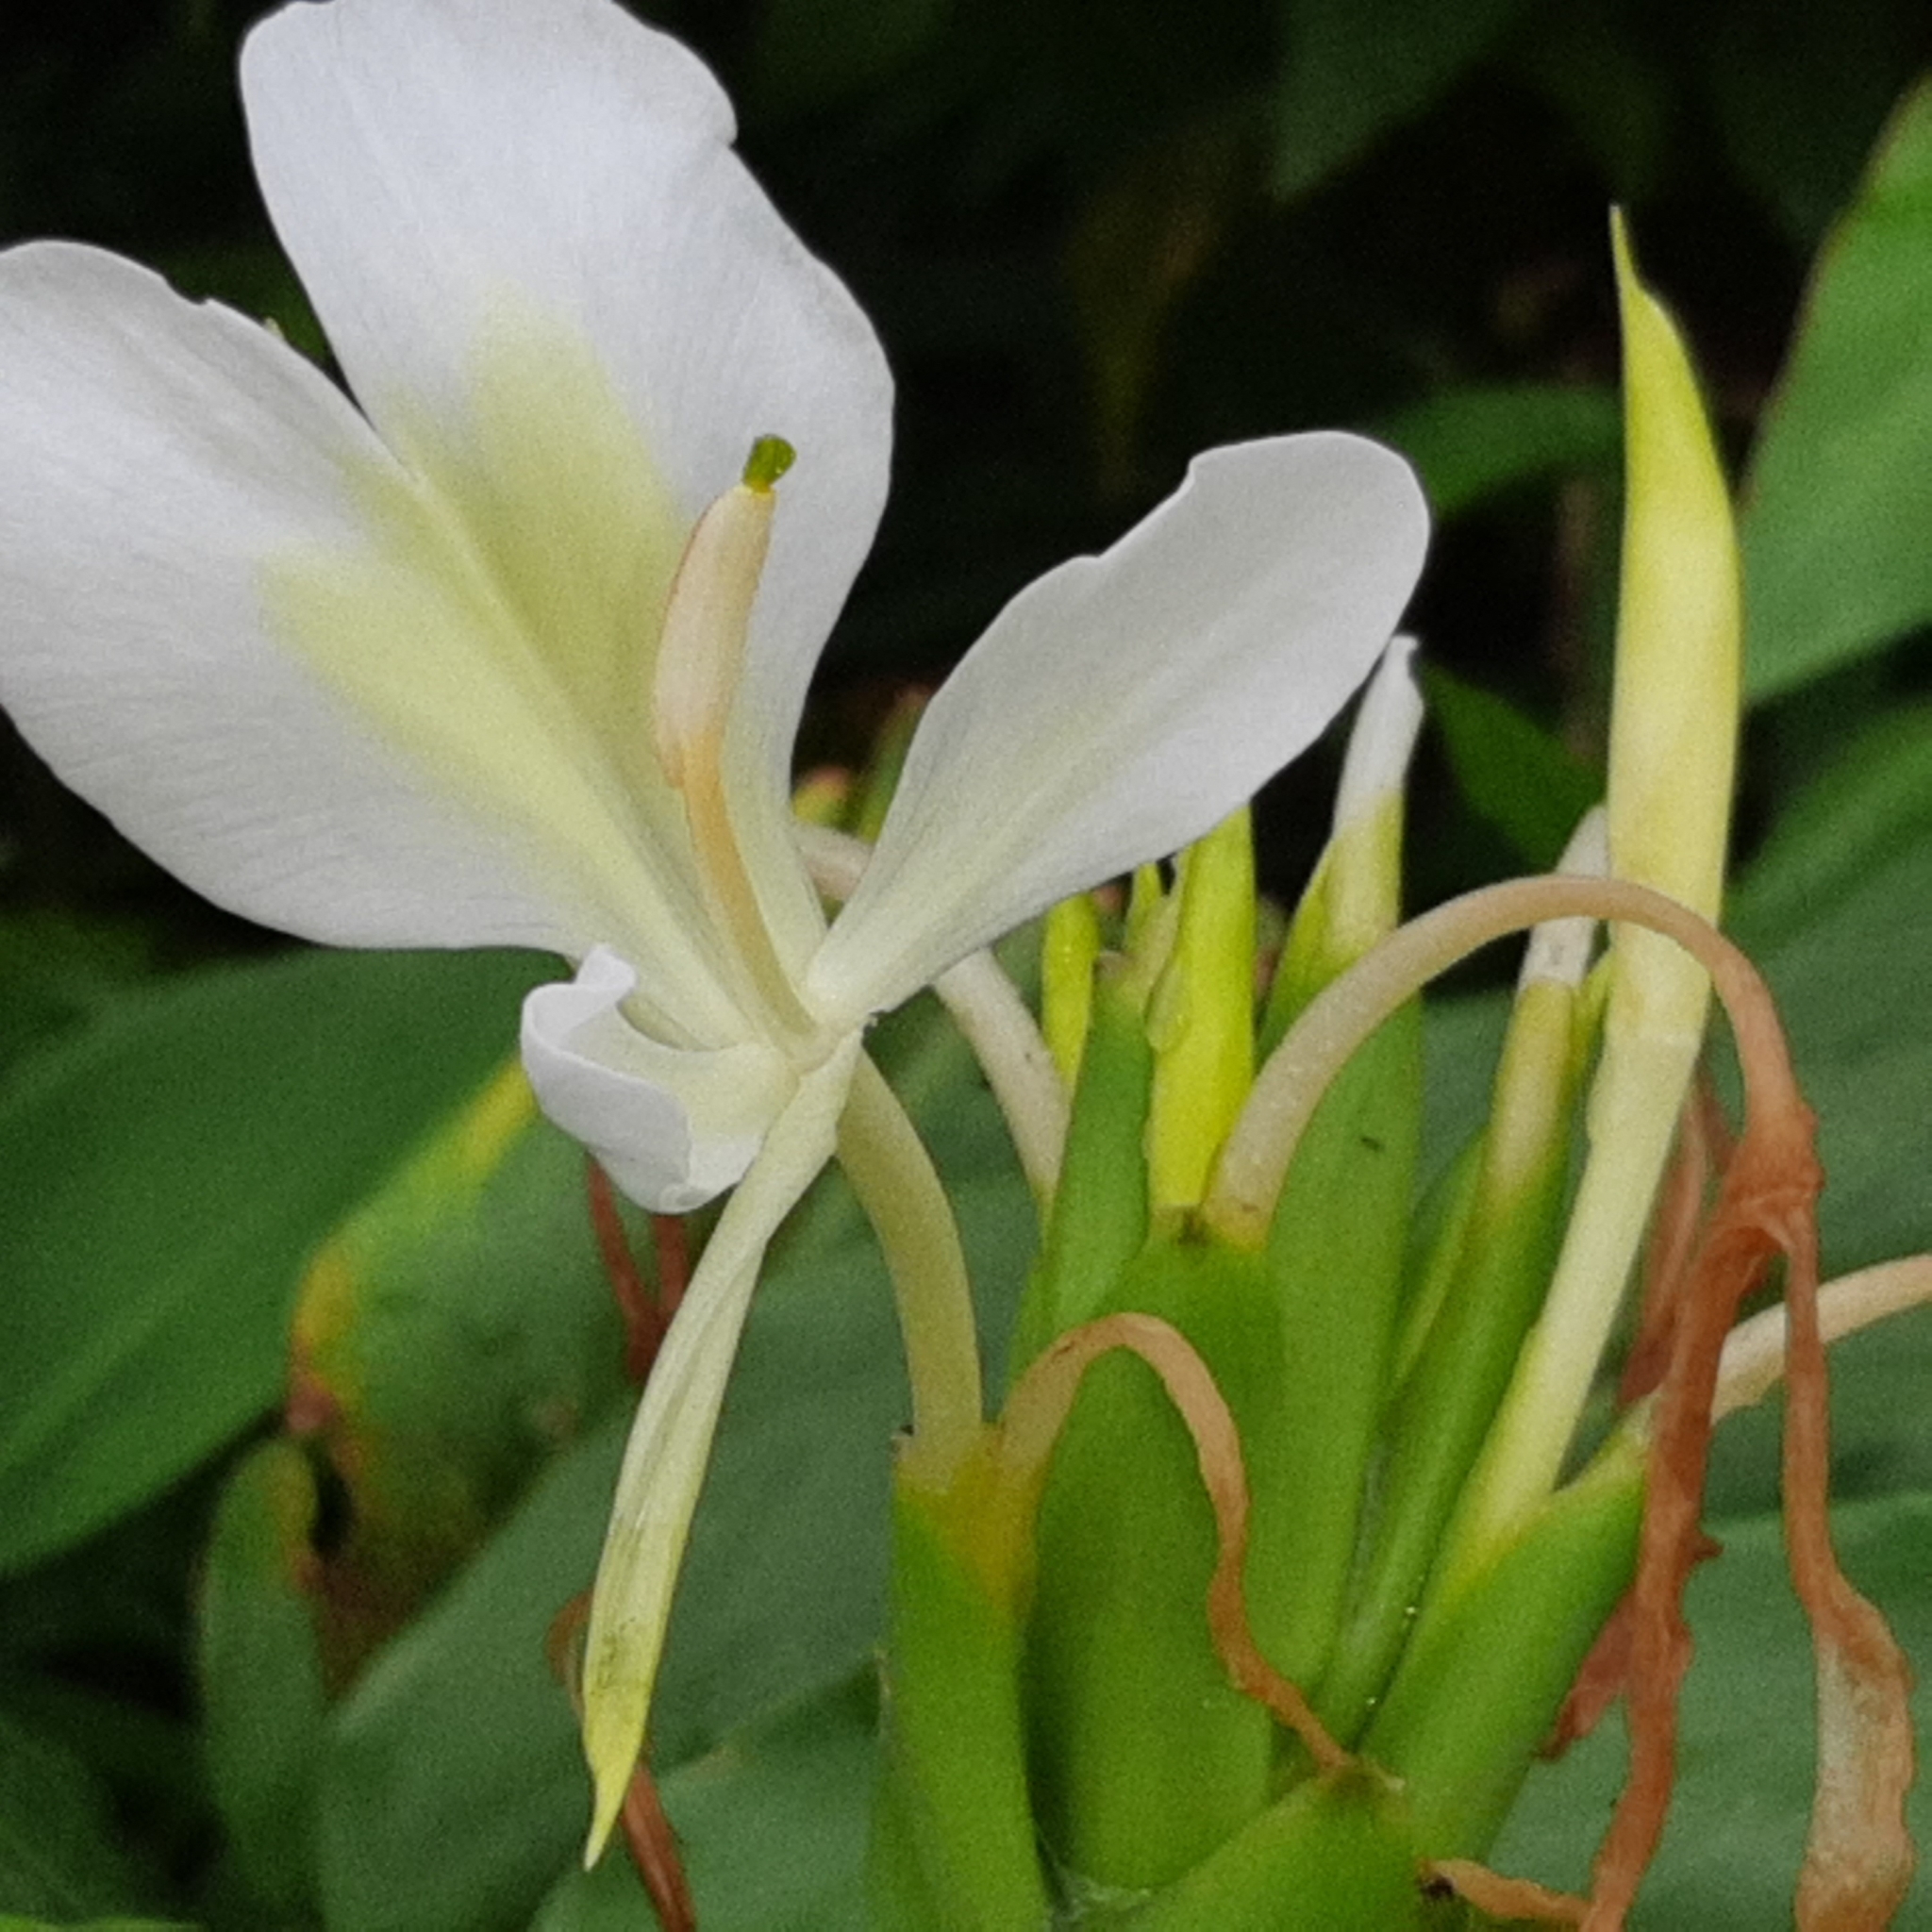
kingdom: Plantae
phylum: Tracheophyta
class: Liliopsida
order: Zingiberales
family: Zingiberaceae
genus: Hedychium
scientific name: Hedychium coronarium
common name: White garland-lily
